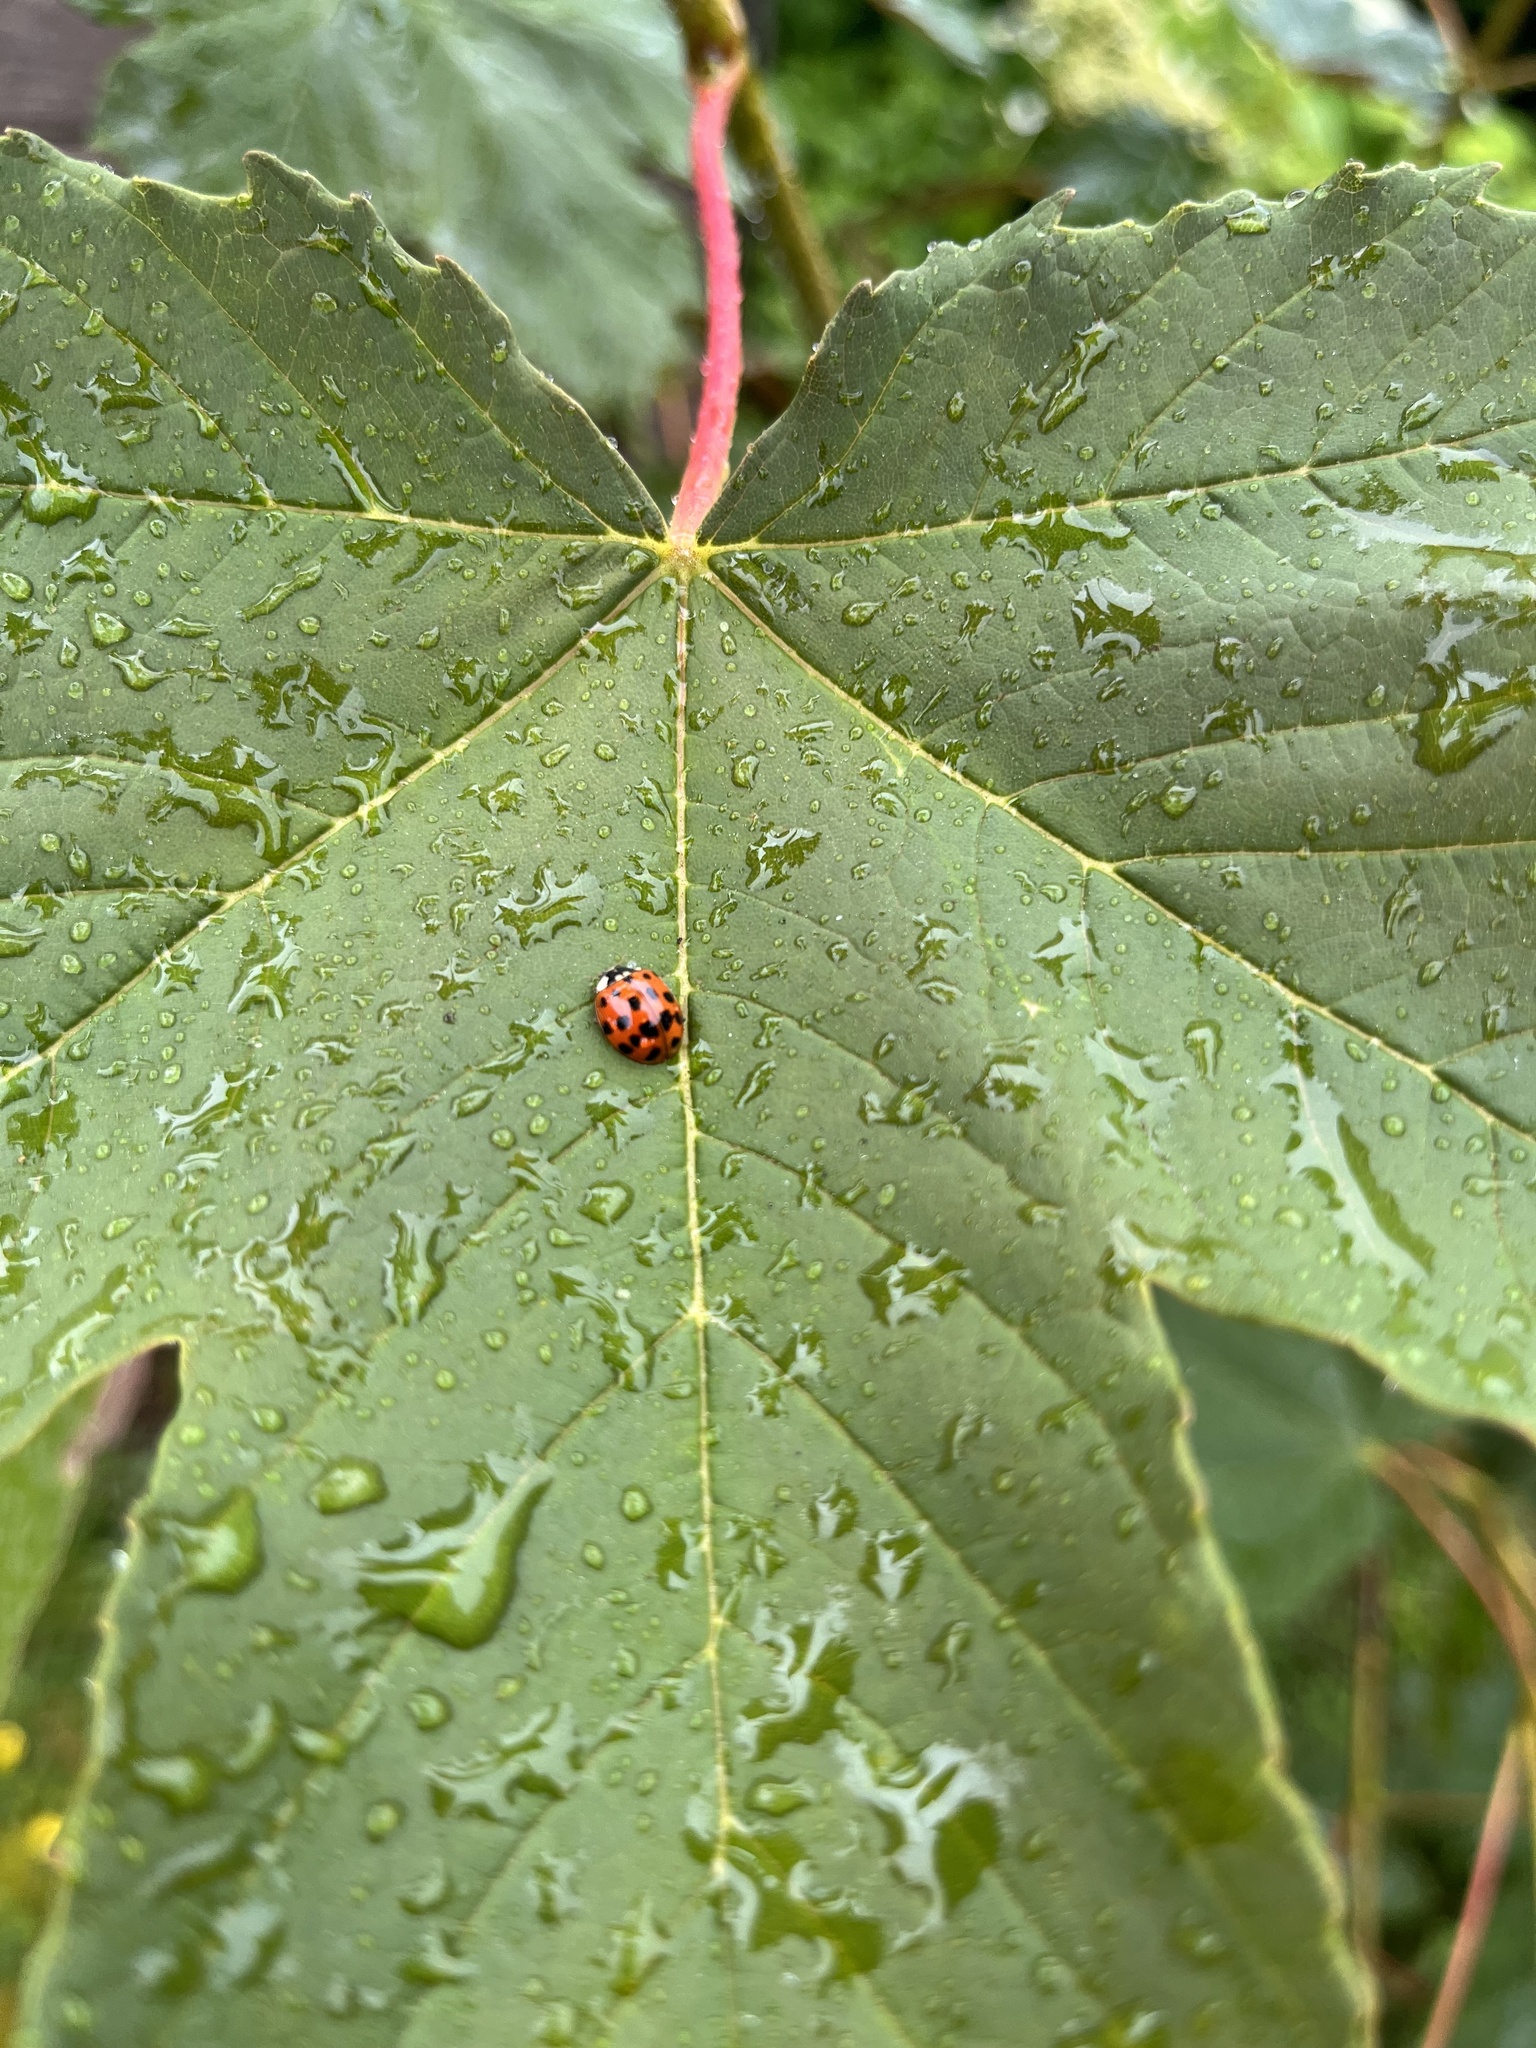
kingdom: Animalia
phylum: Arthropoda
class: Insecta
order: Coleoptera
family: Coccinellidae
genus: Harmonia
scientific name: Harmonia axyridis
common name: Harlequin ladybird
